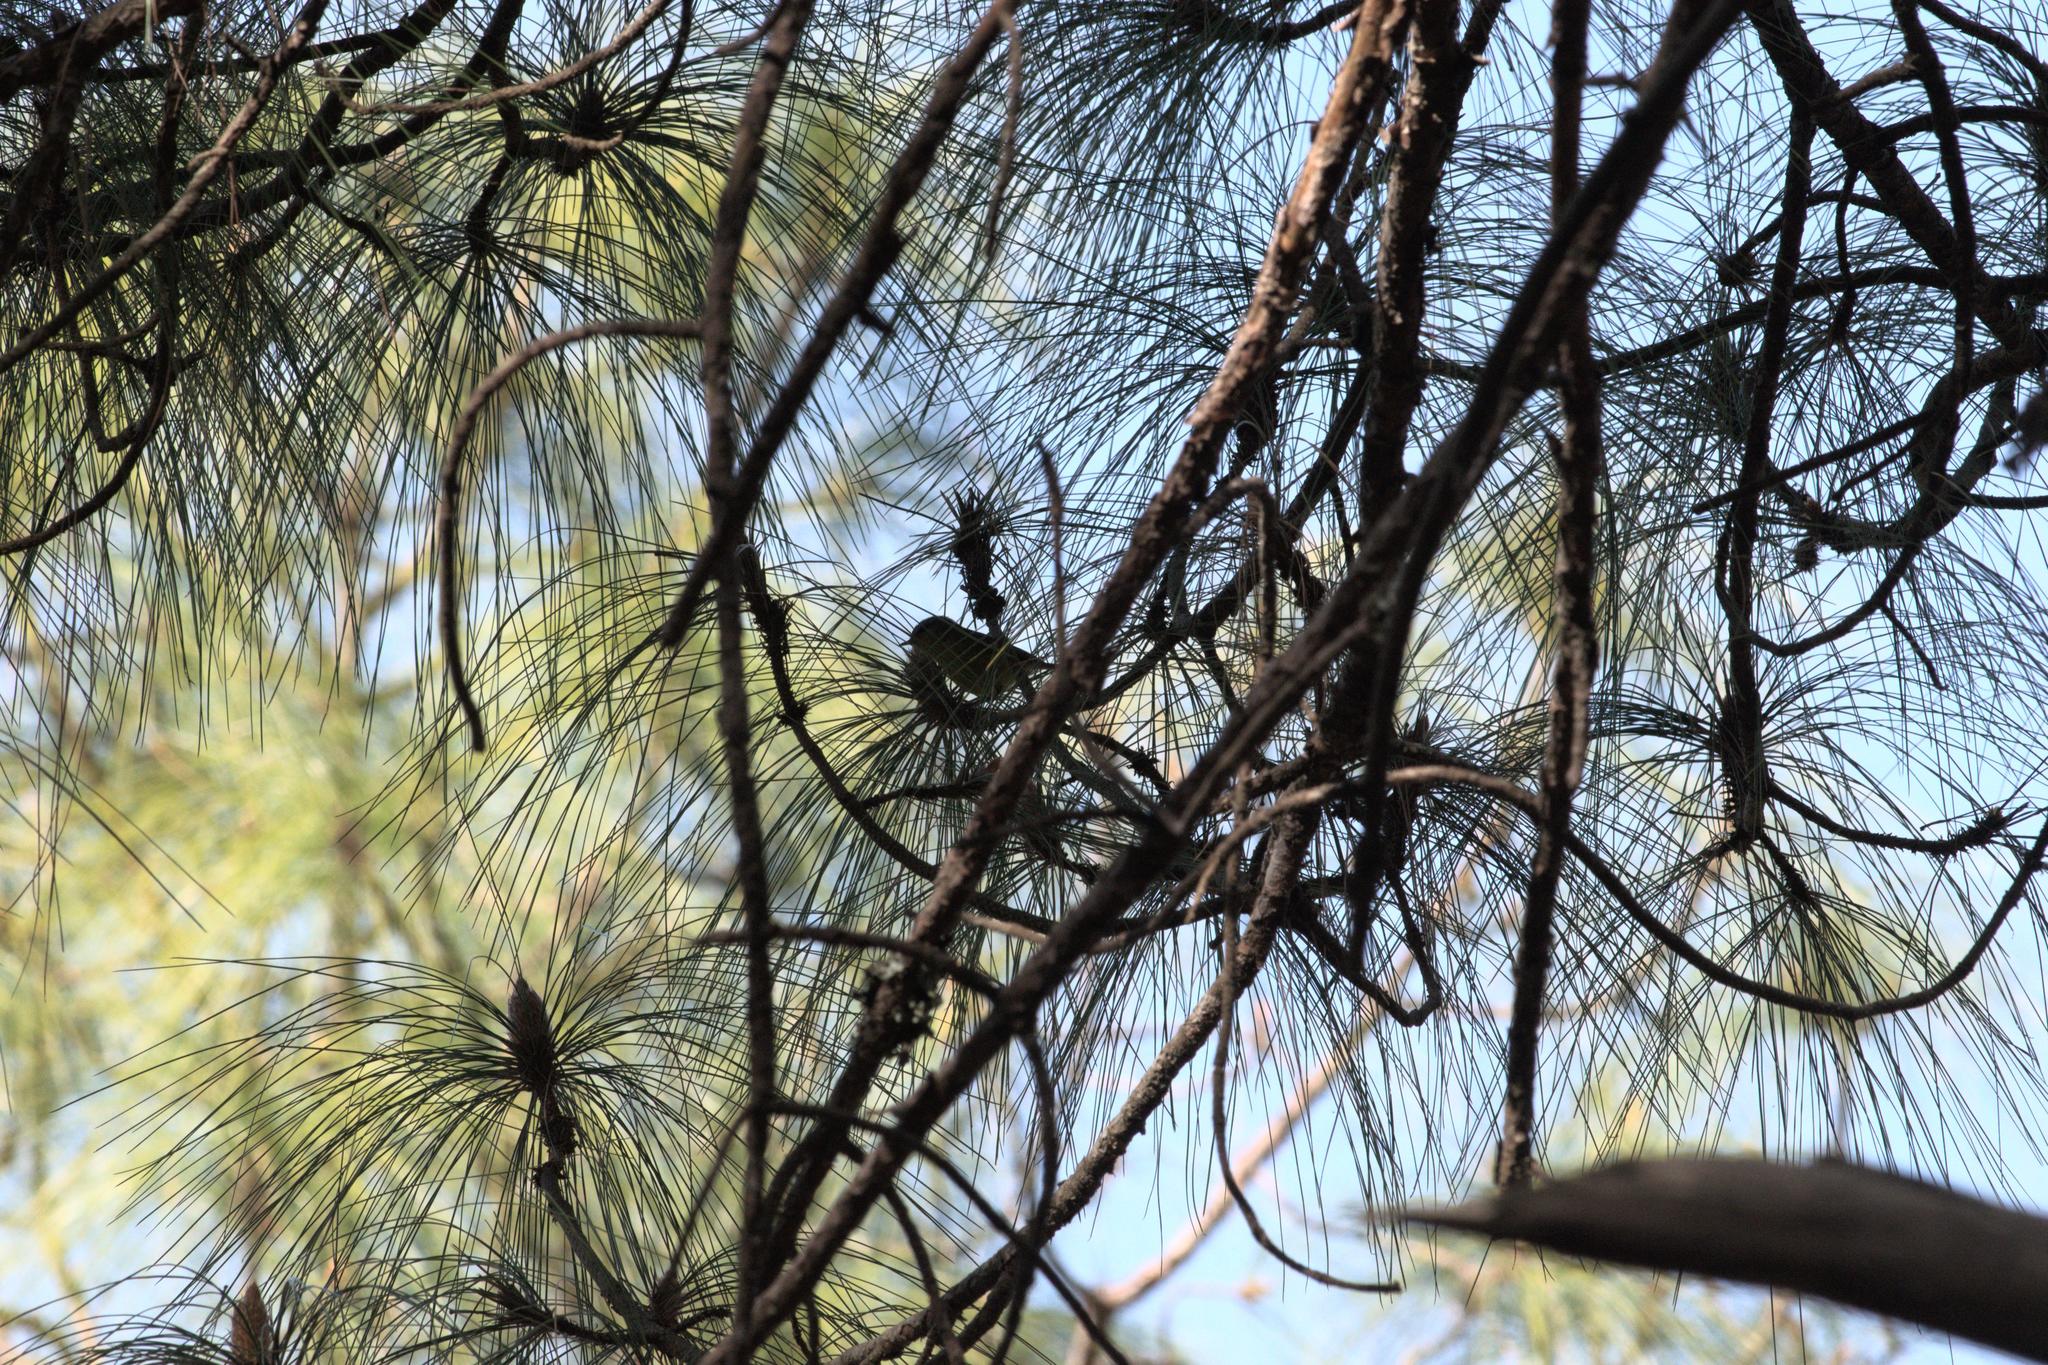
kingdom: Animalia
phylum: Chordata
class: Aves
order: Passeriformes
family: Phylloscopidae
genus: Phylloscopus
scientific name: Phylloscopus xanthoschistos
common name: Grey-hooded warbler
